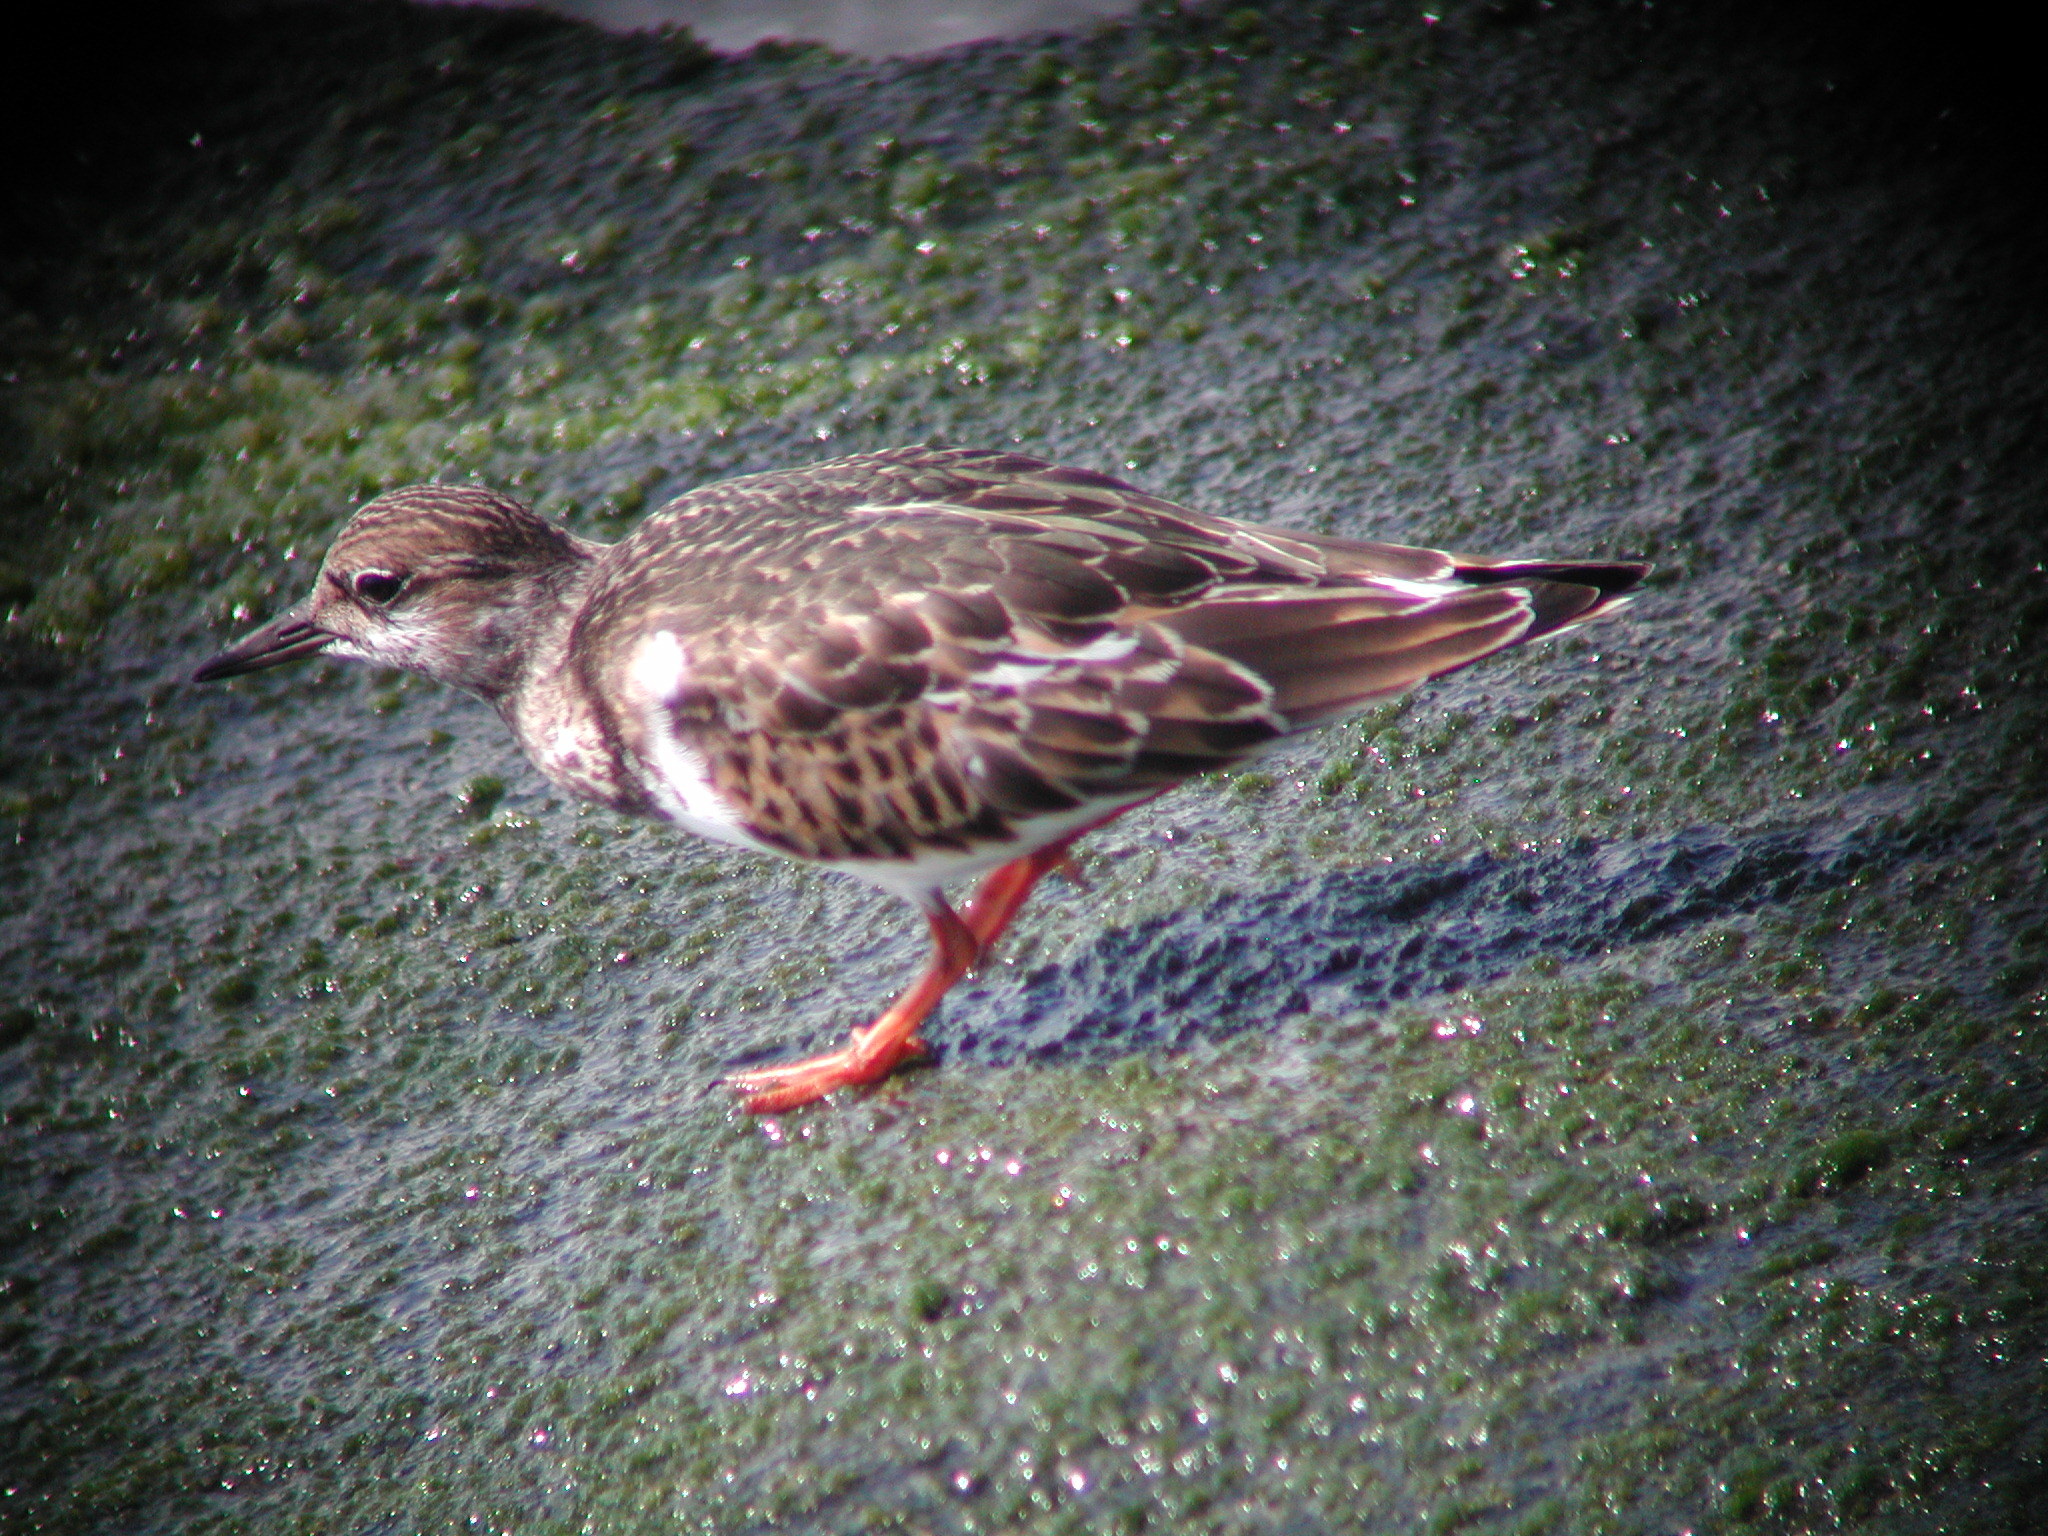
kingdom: Animalia
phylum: Chordata
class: Aves
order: Charadriiformes
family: Scolopacidae
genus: Arenaria
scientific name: Arenaria interpres
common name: Ruddy turnstone
